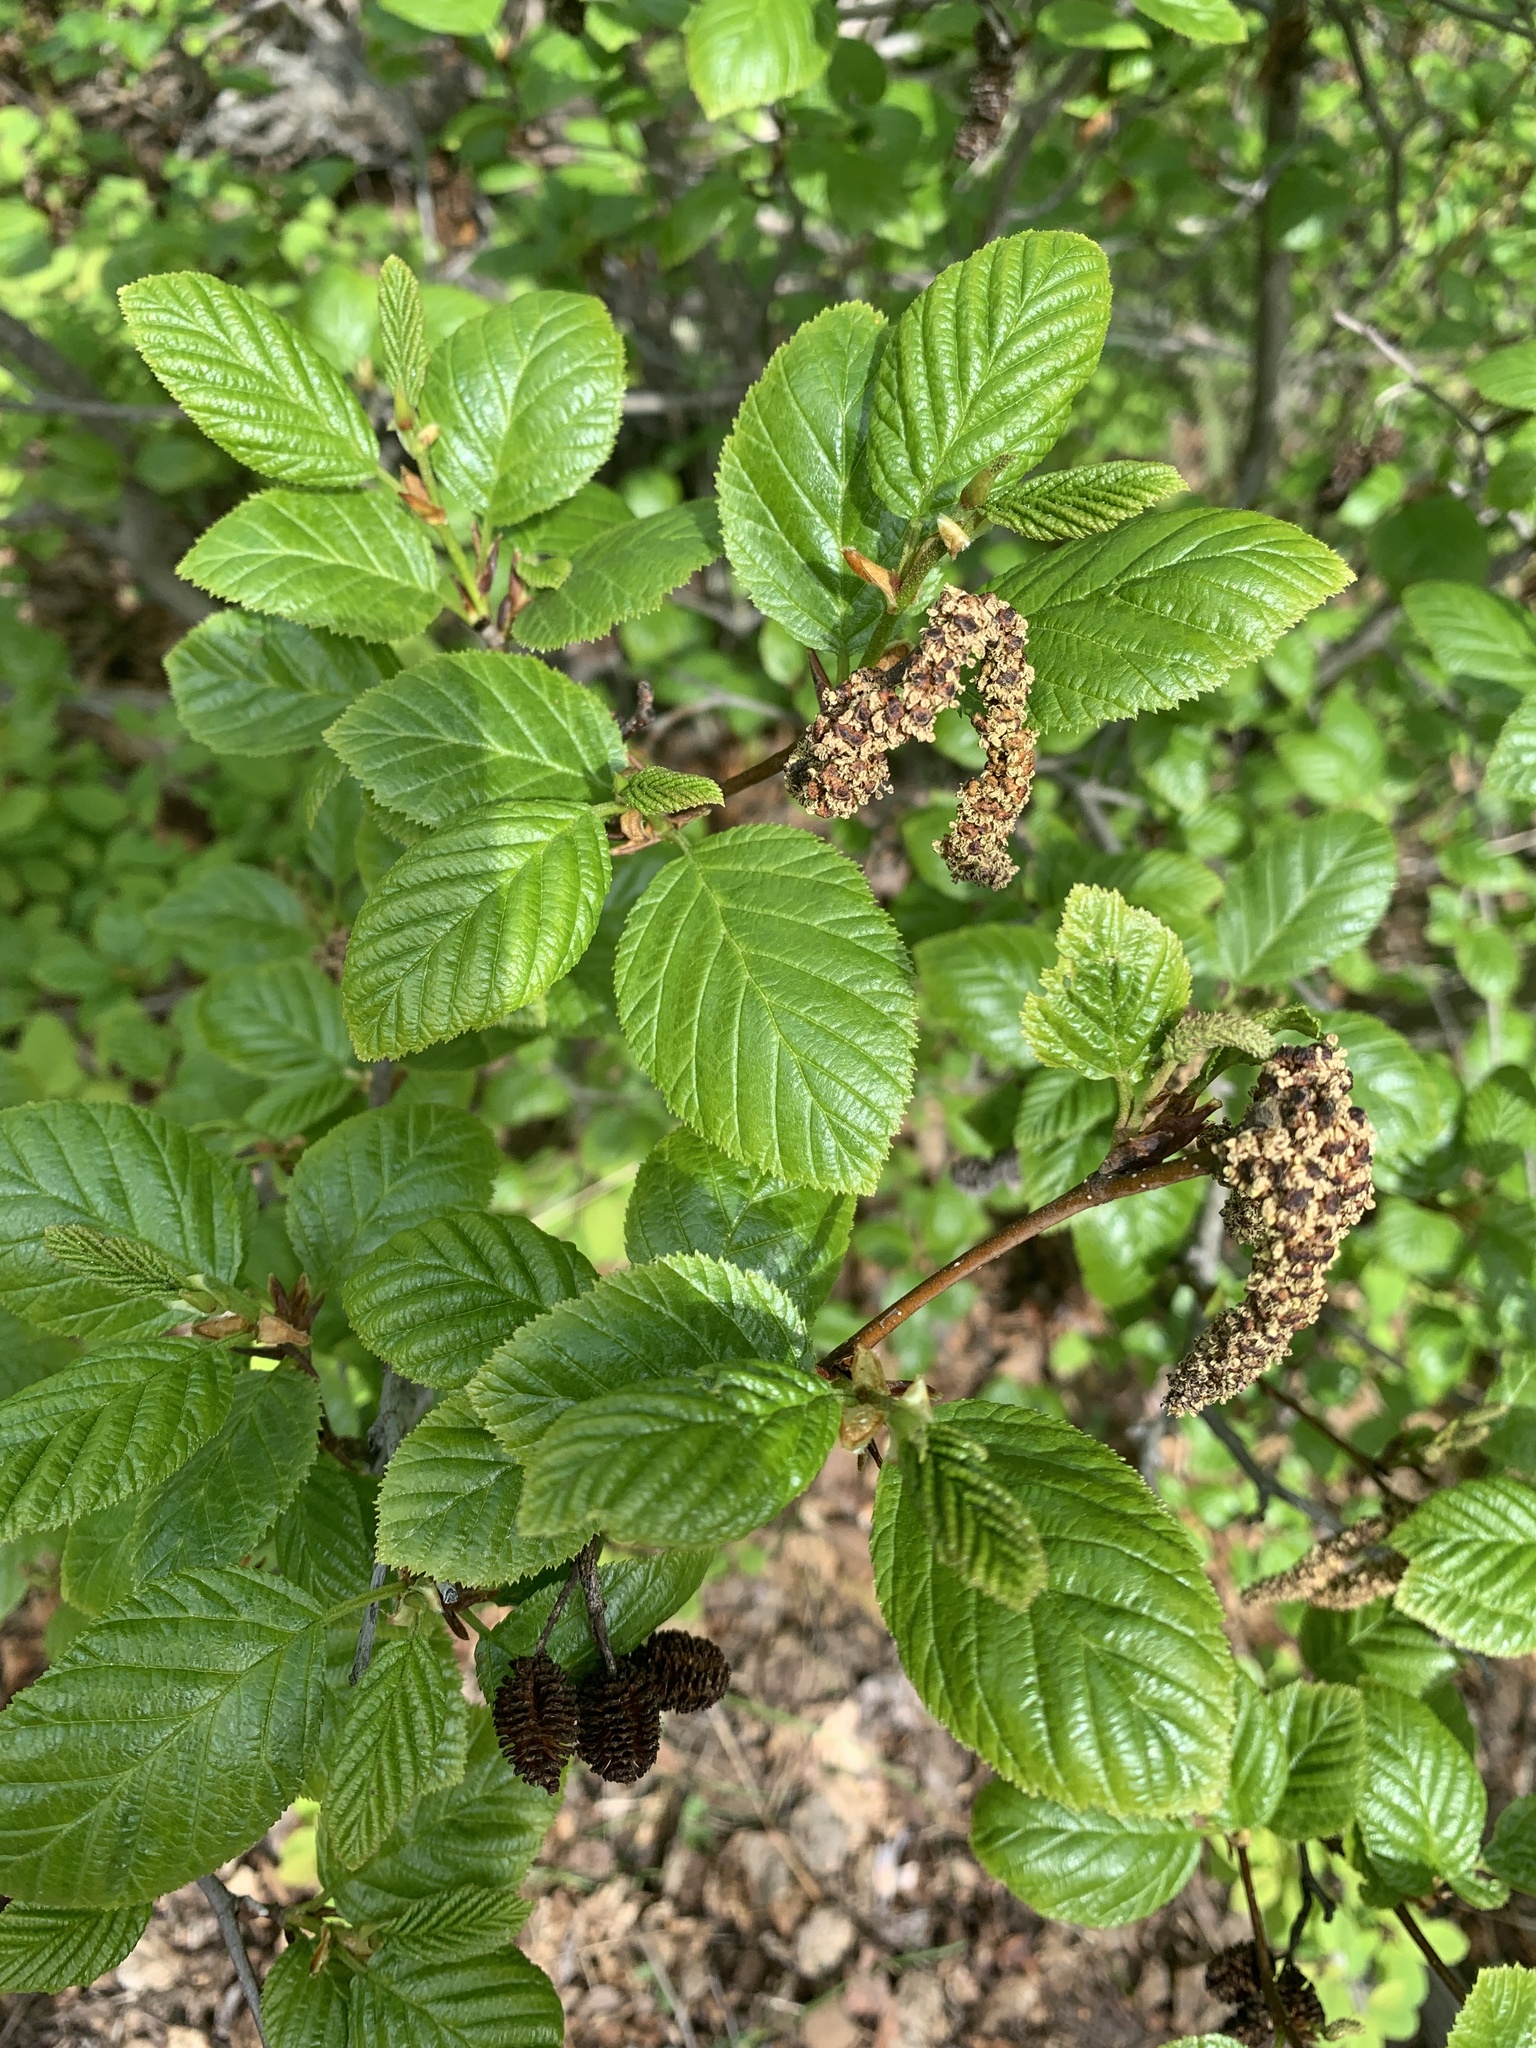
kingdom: Plantae
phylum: Tracheophyta
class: Magnoliopsida
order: Fagales
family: Betulaceae
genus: Alnus
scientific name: Alnus alnobetula
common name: Green alder
